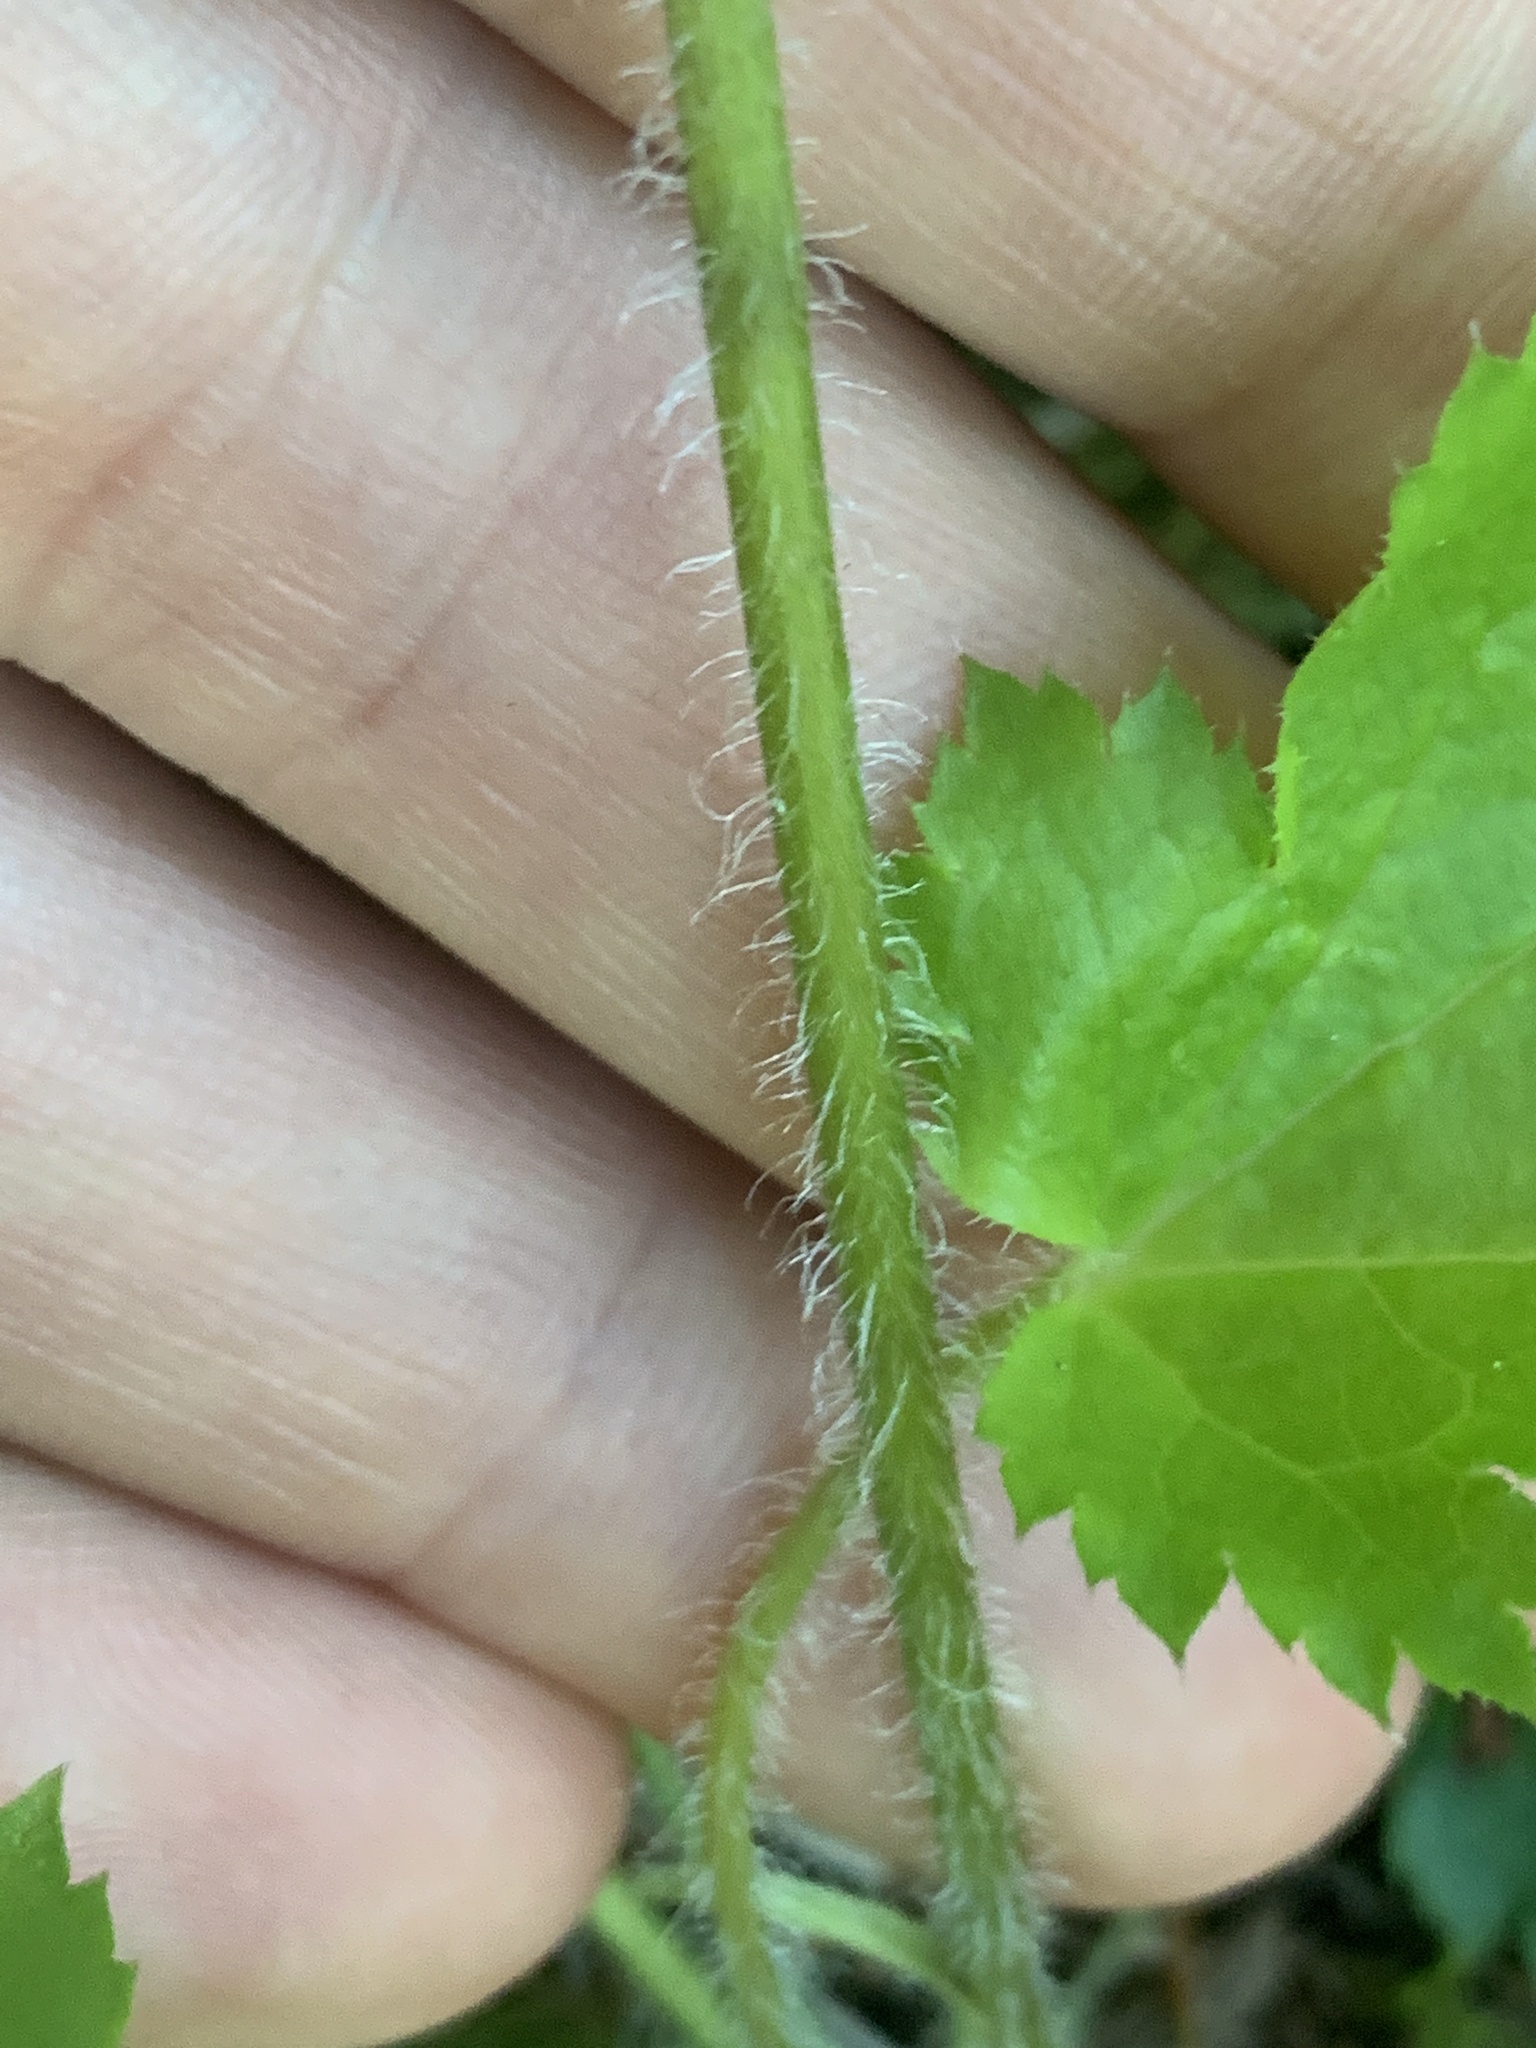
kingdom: Plantae
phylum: Tracheophyta
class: Magnoliopsida
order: Saxifragales
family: Saxifragaceae
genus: Heuchera
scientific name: Heuchera micrantha
